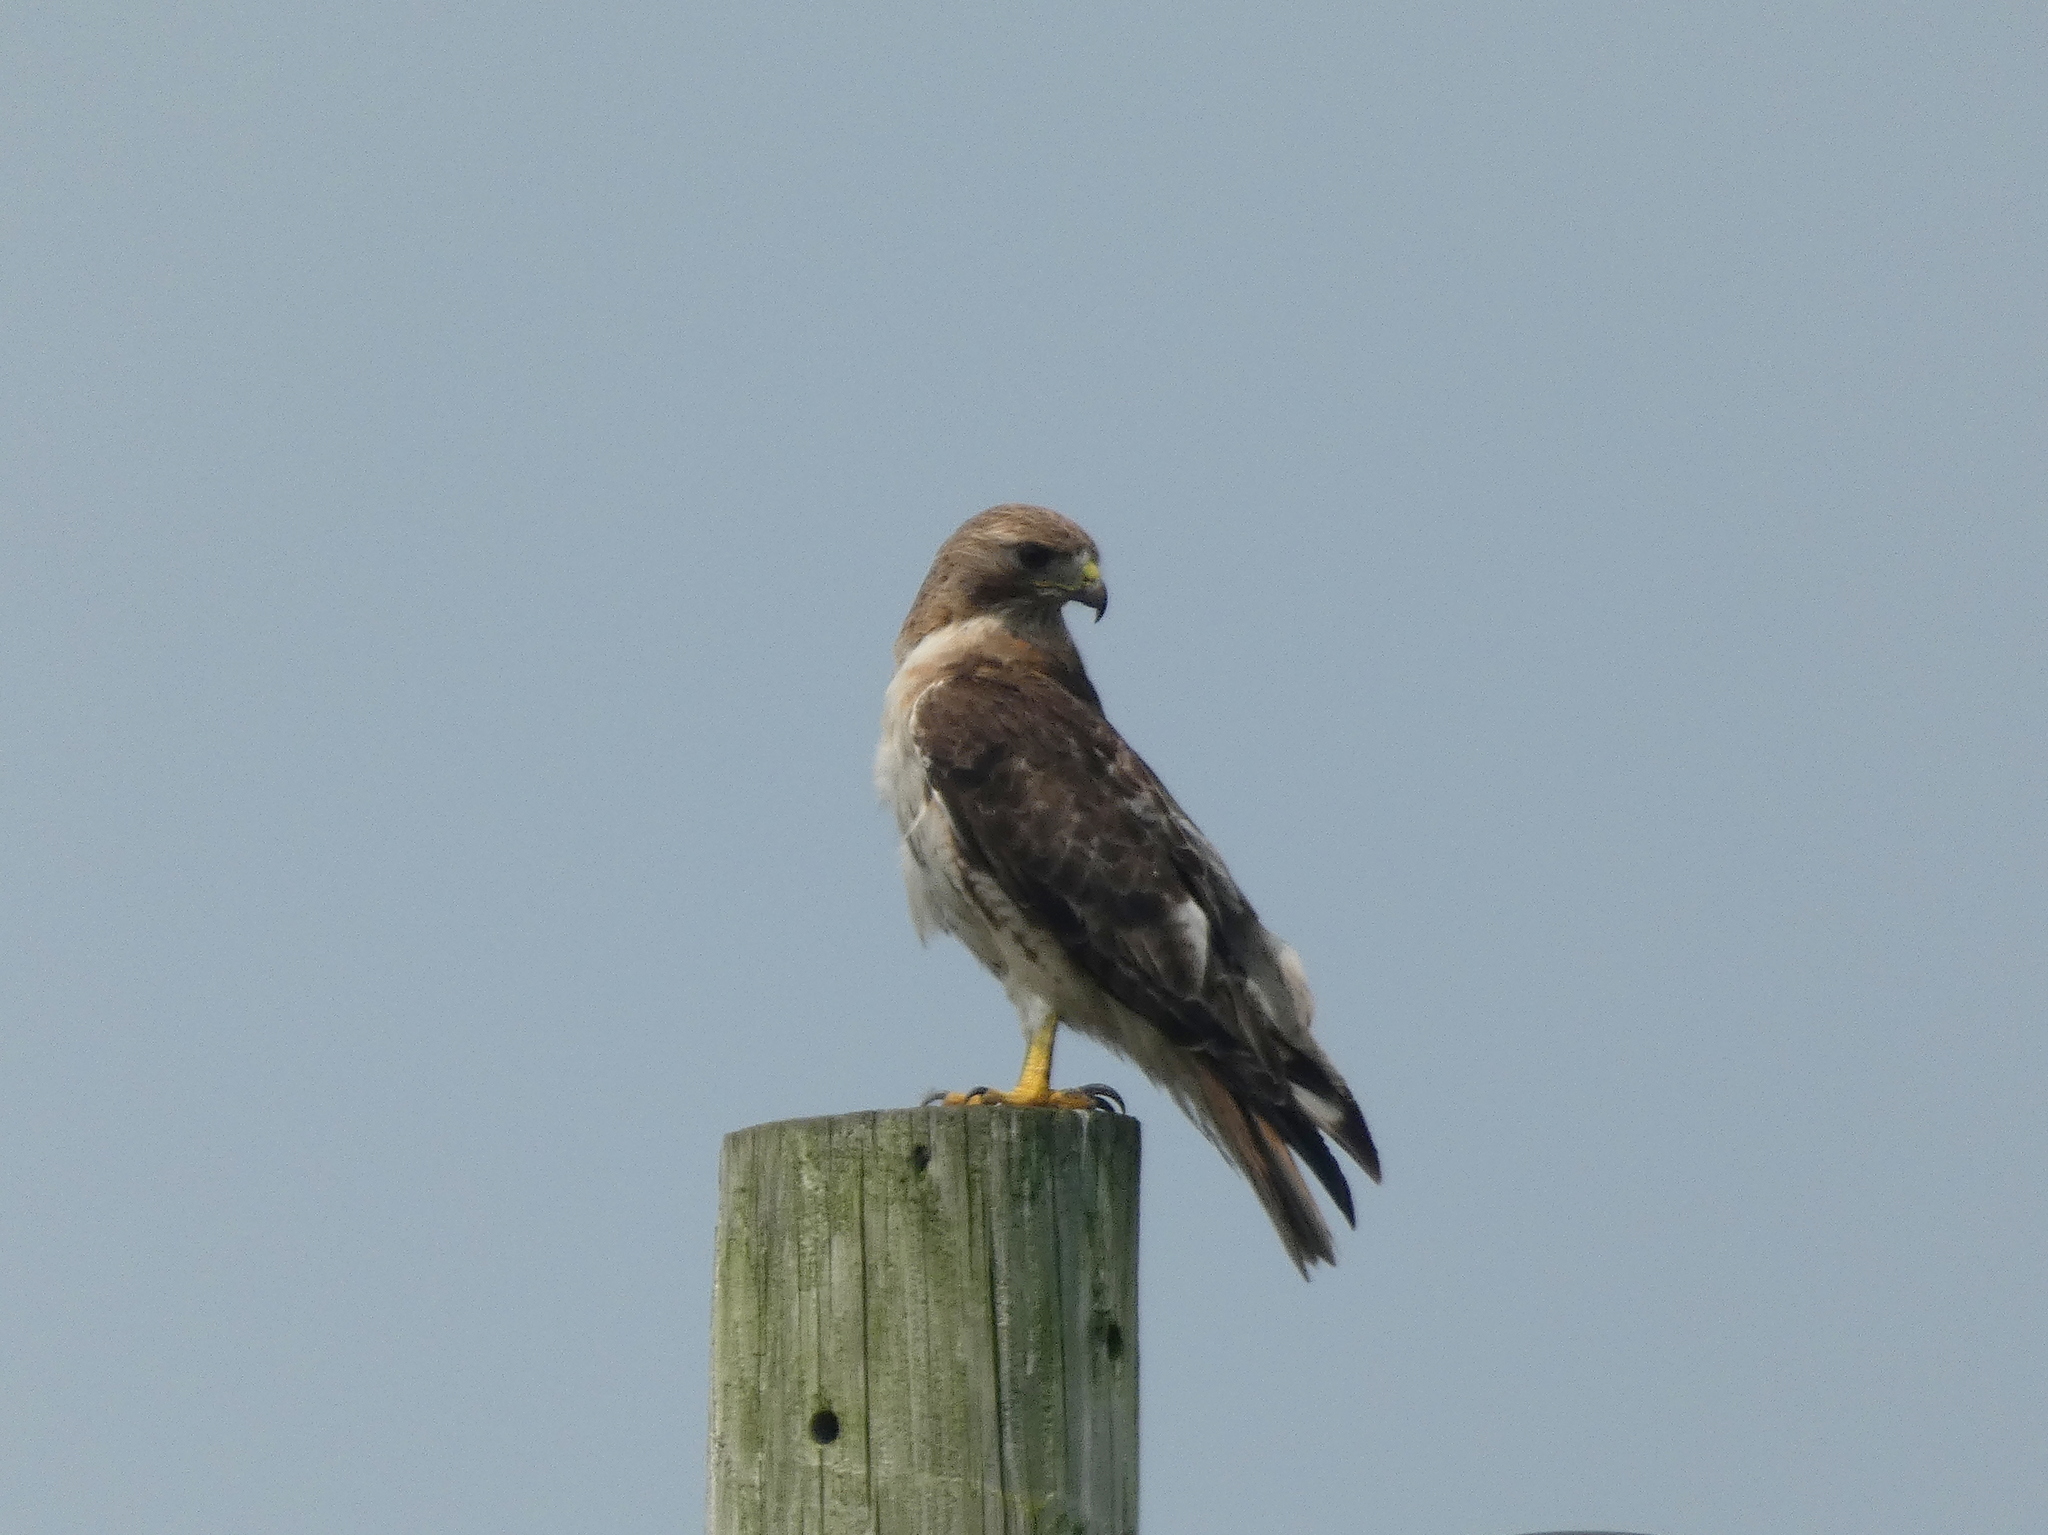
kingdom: Animalia
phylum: Chordata
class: Aves
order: Accipitriformes
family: Accipitridae
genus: Buteo
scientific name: Buteo jamaicensis
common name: Red-tailed hawk
